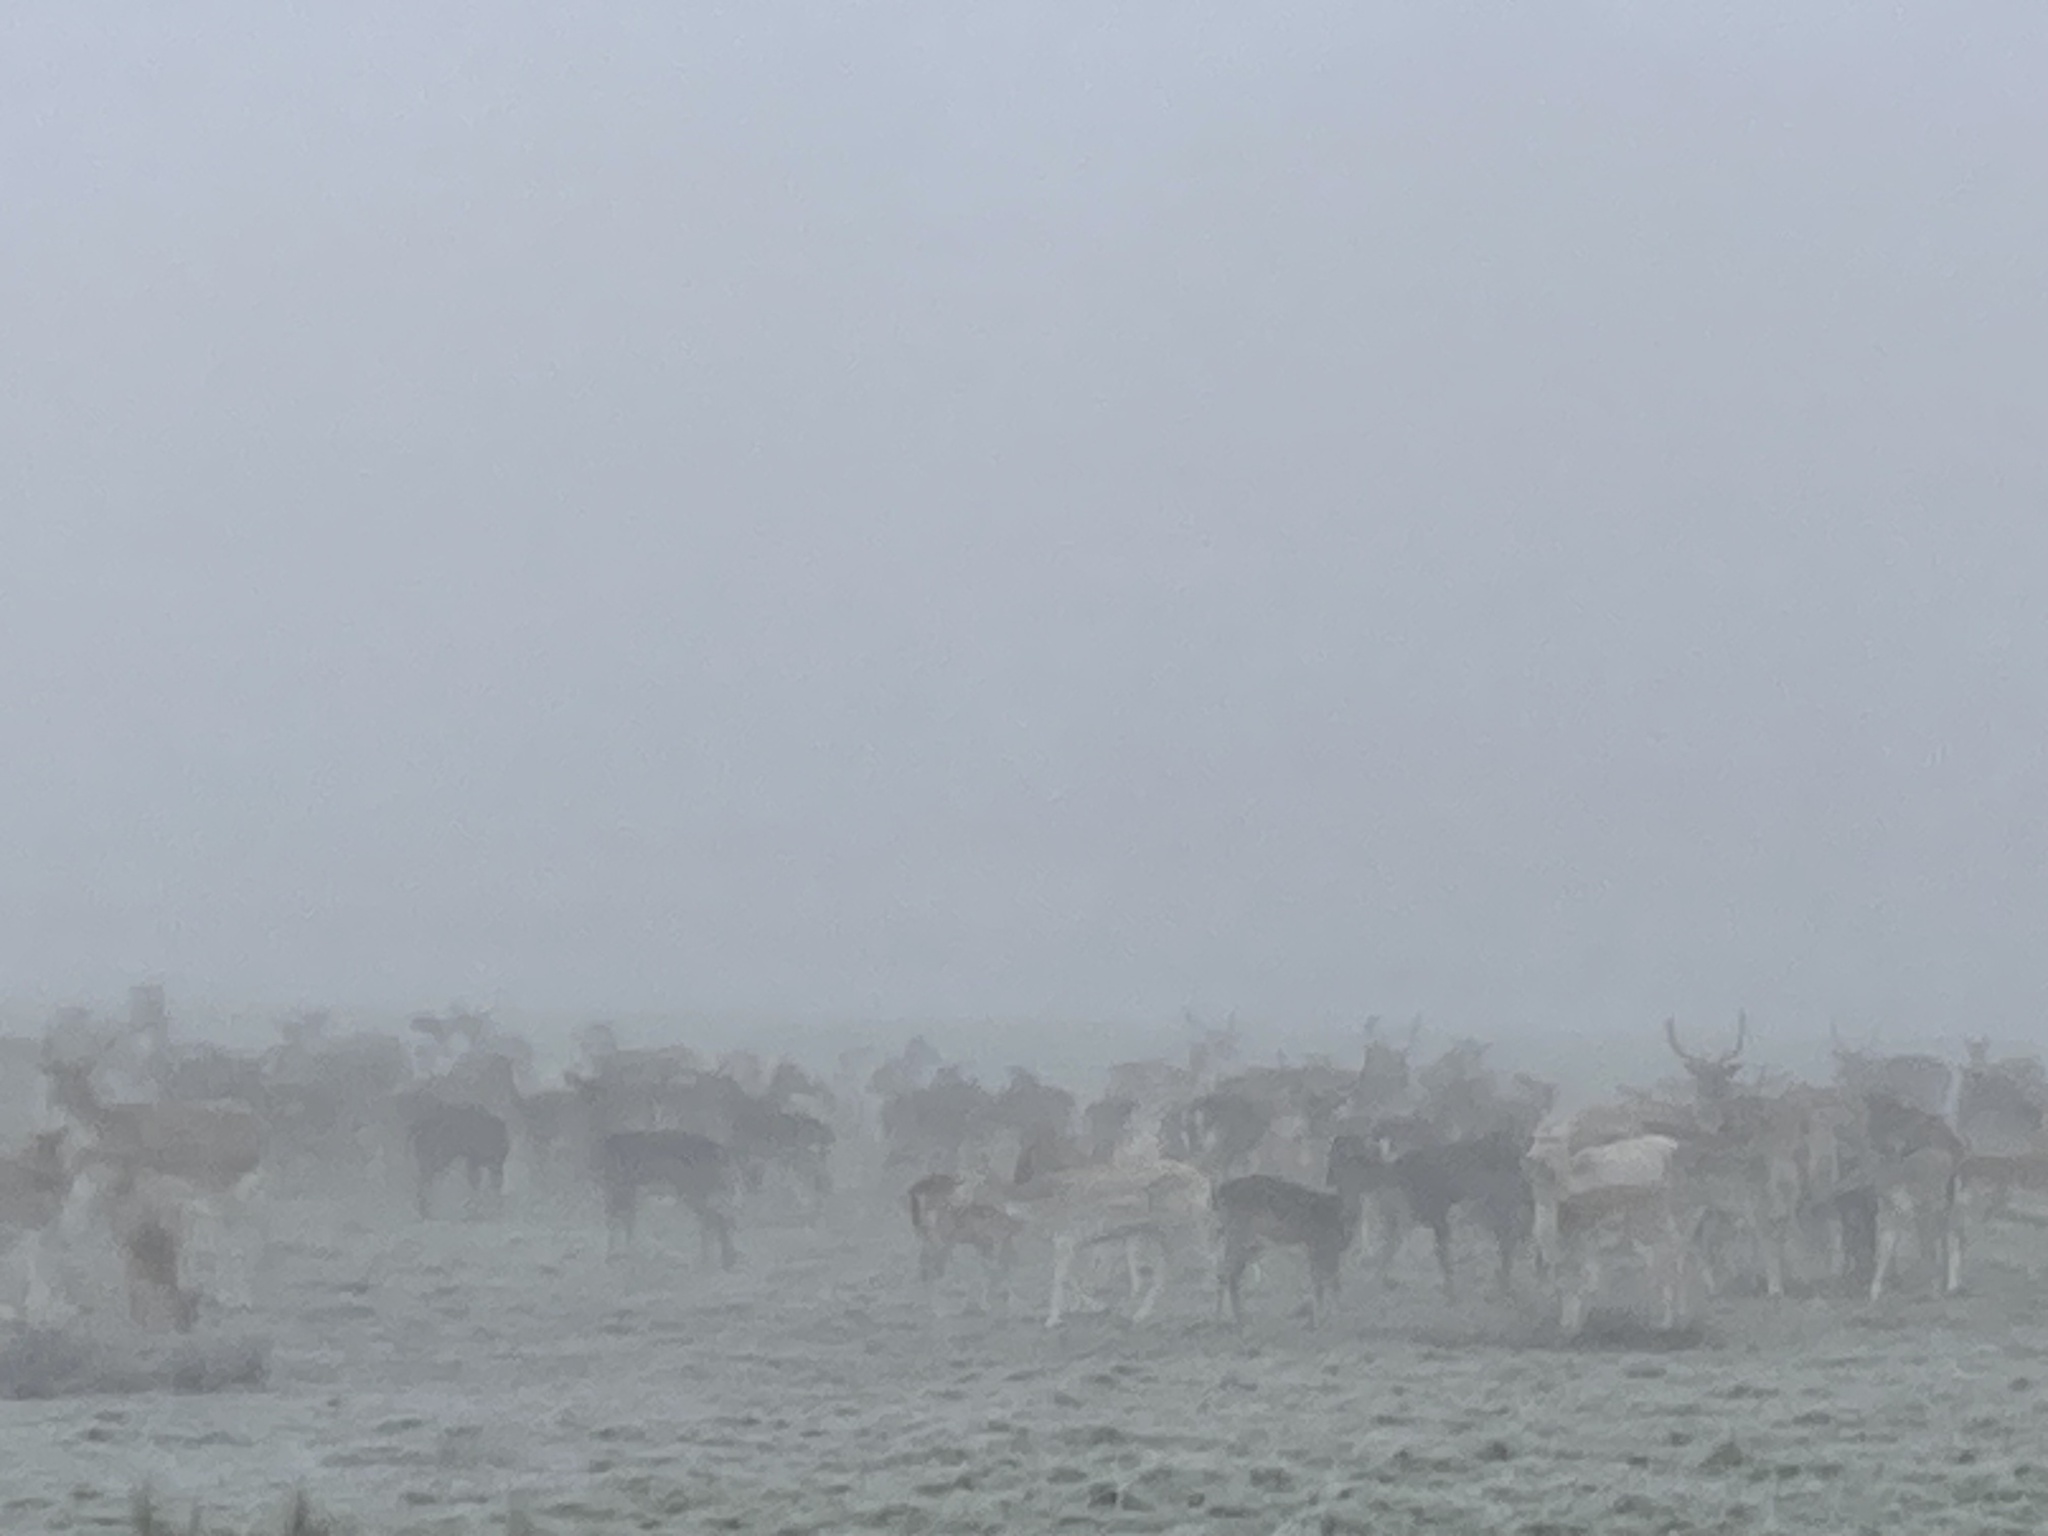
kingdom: Animalia
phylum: Chordata
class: Mammalia
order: Artiodactyla
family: Cervidae
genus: Dama
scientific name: Dama dama
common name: Fallow deer
